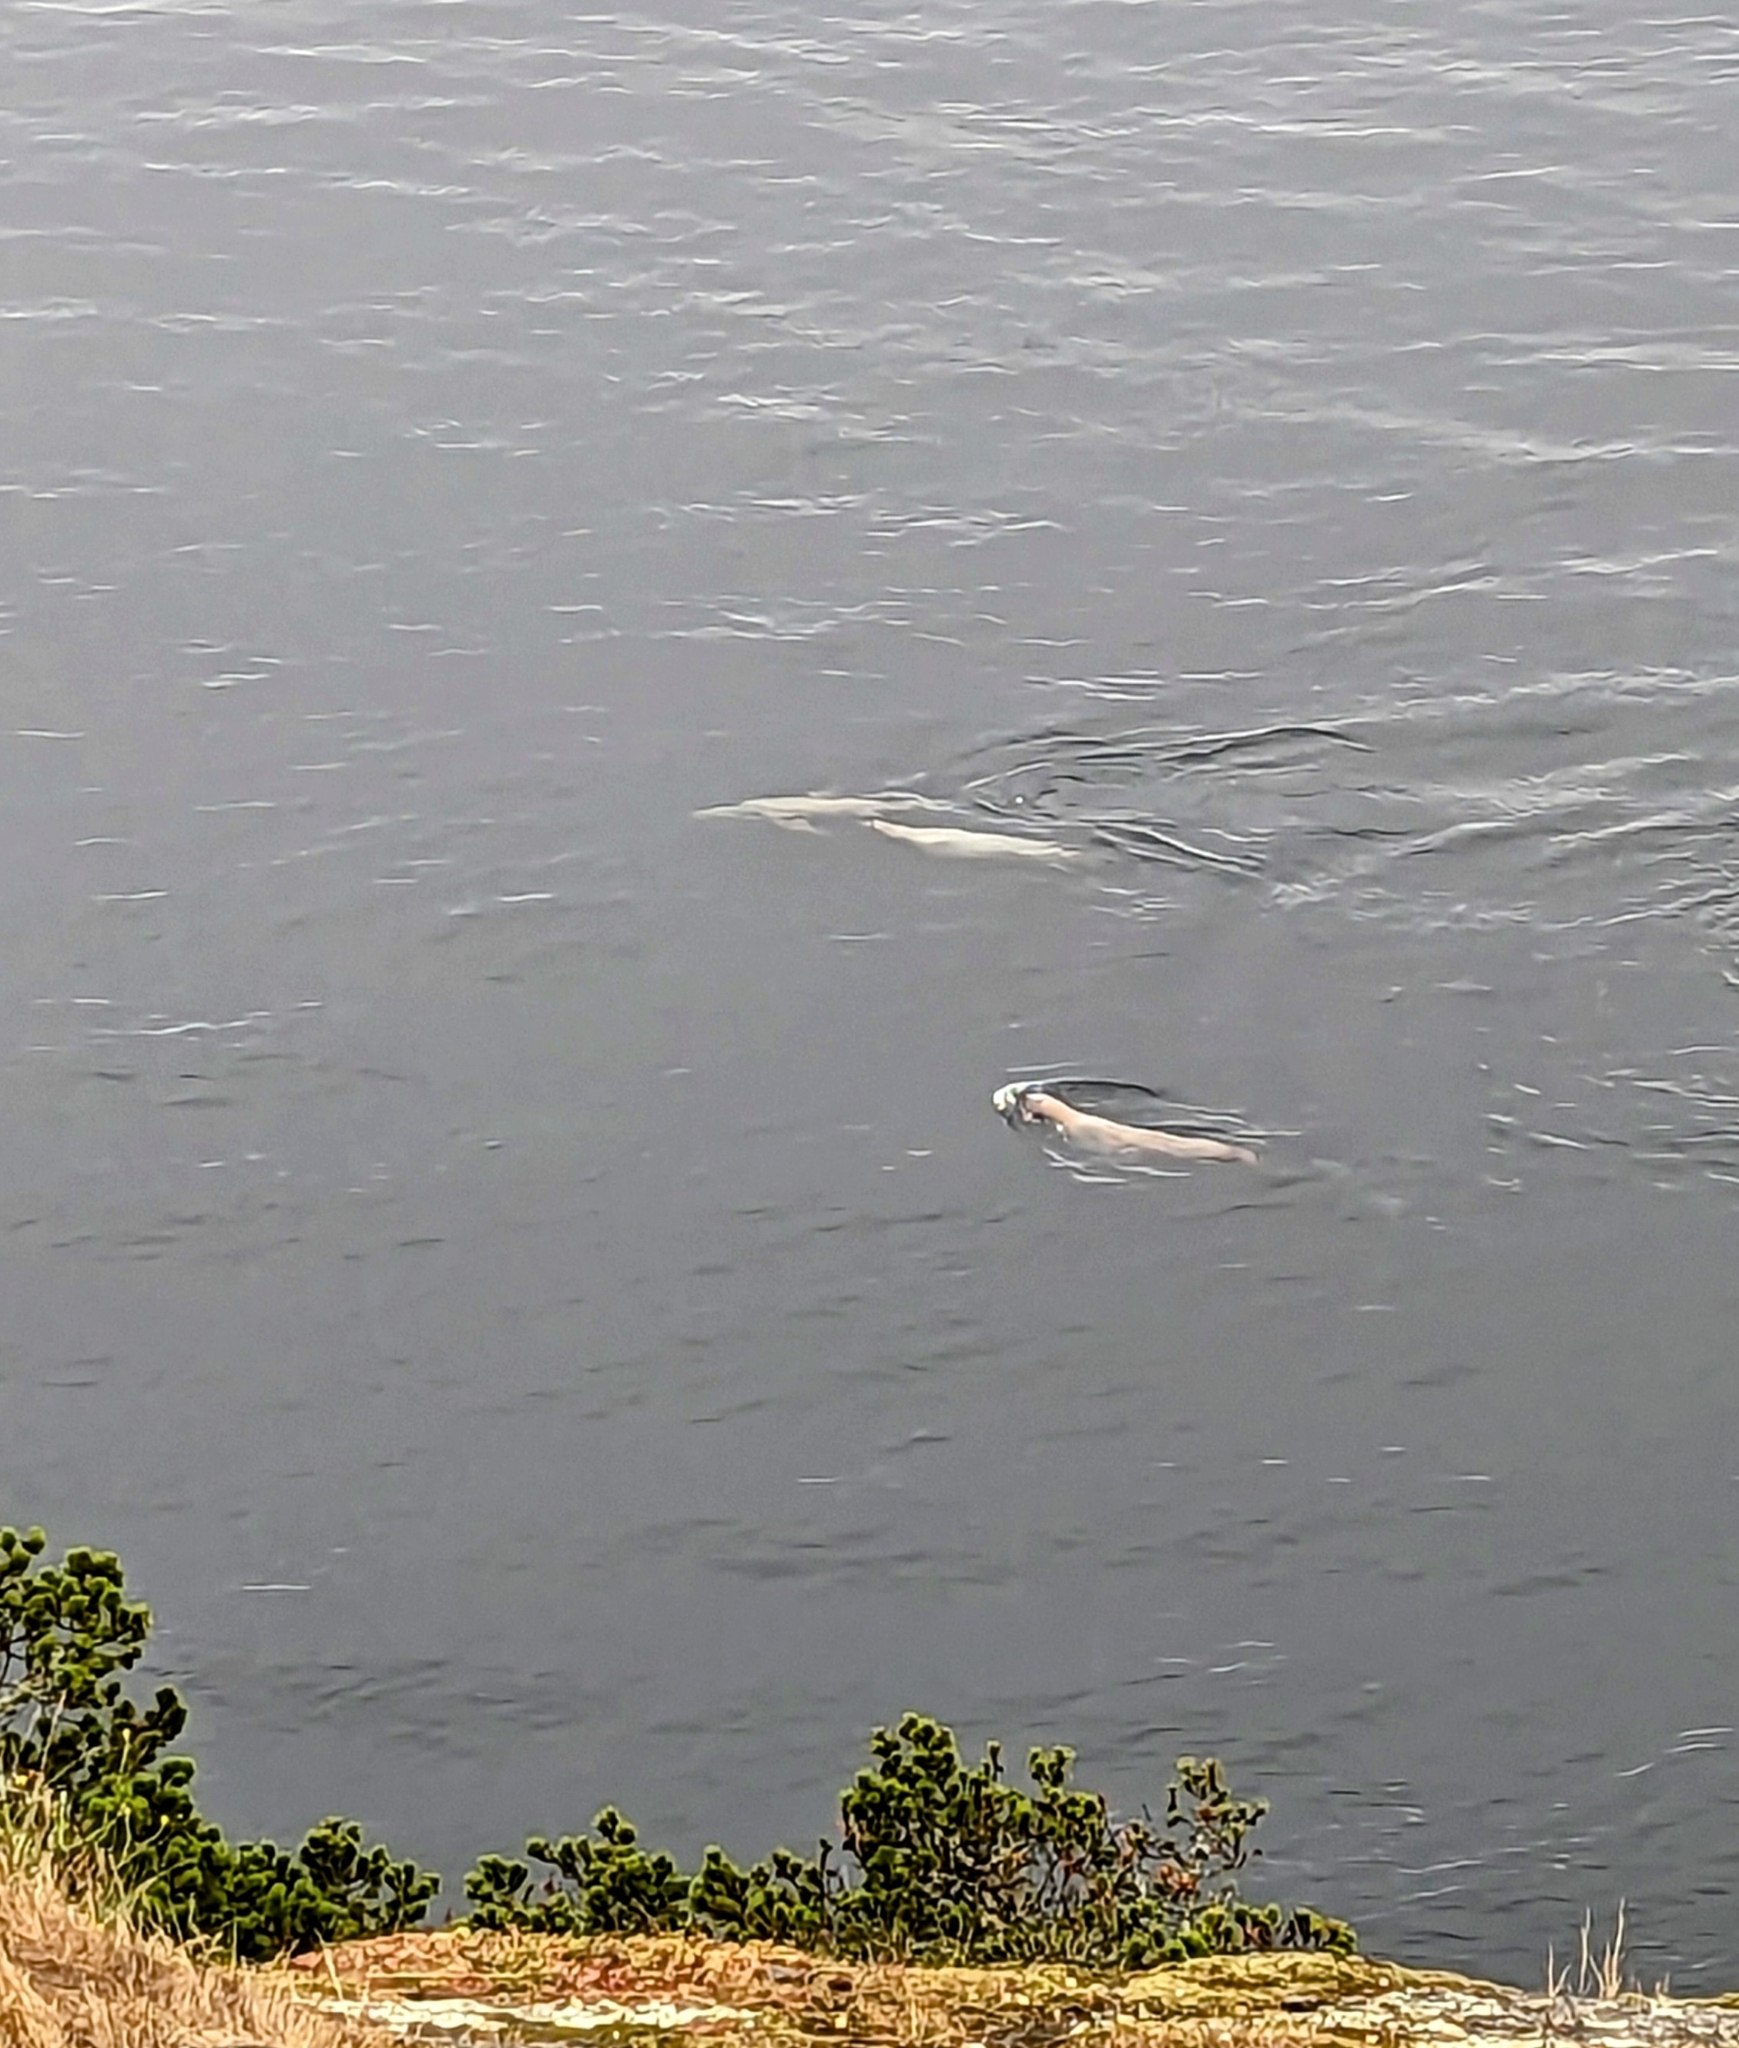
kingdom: Animalia
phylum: Chordata
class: Mammalia
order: Carnivora
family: Otariidae
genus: Eumetopias
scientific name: Eumetopias jubatus
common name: Steller sea lion
